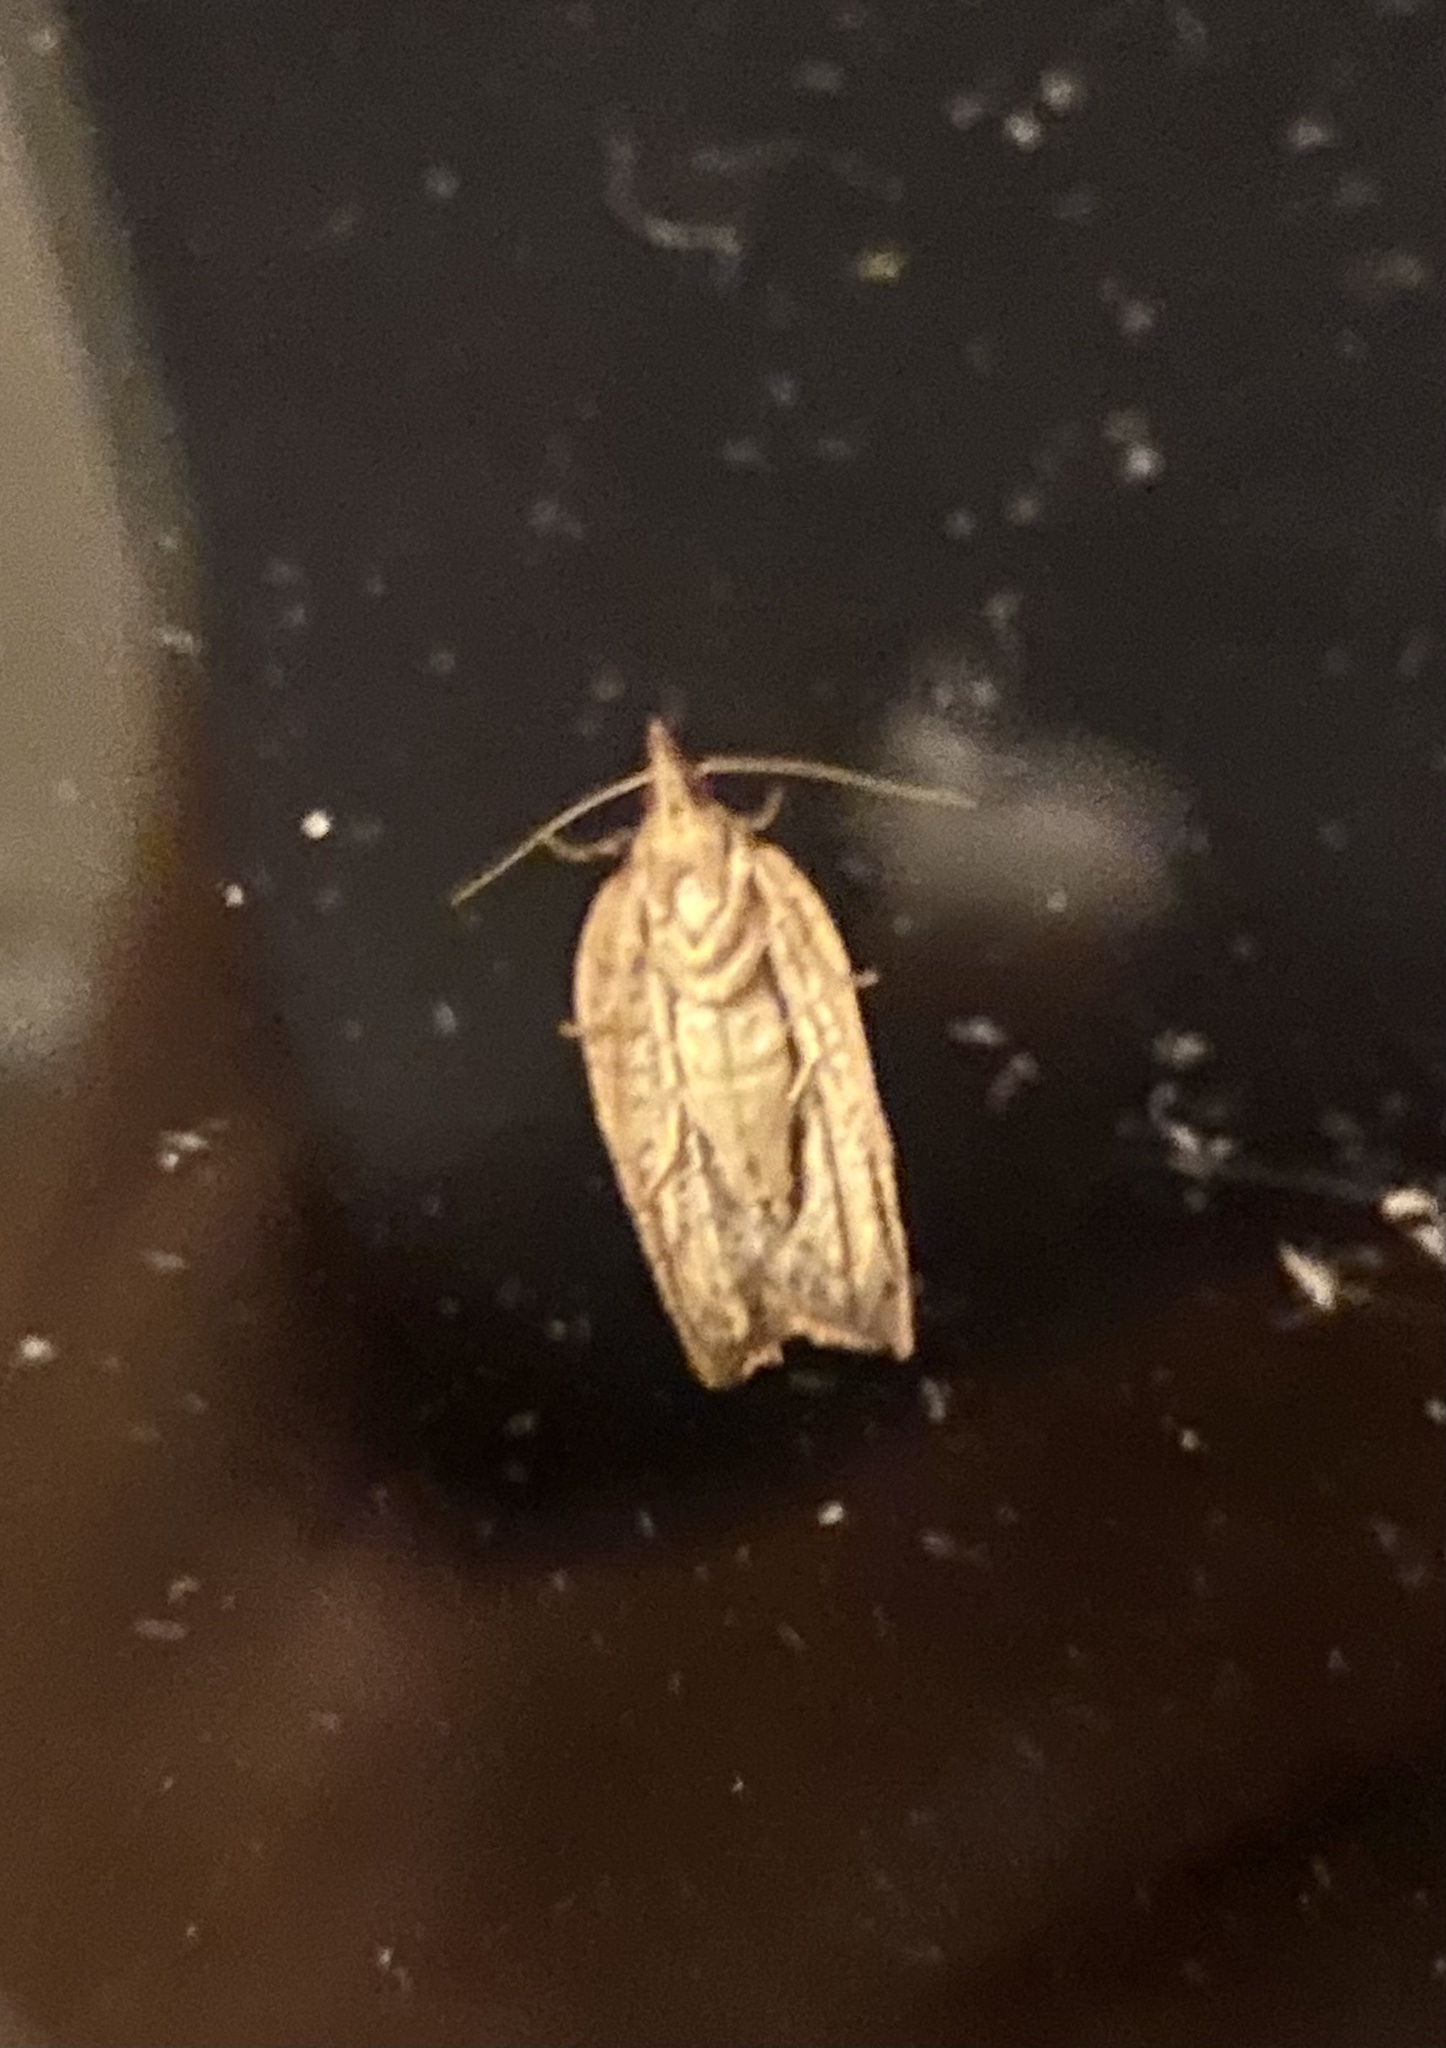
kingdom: Animalia
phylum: Arthropoda
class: Insecta
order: Lepidoptera
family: Tortricidae
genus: Epiphyas
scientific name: Epiphyas postvittana
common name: Light brown apple moth
